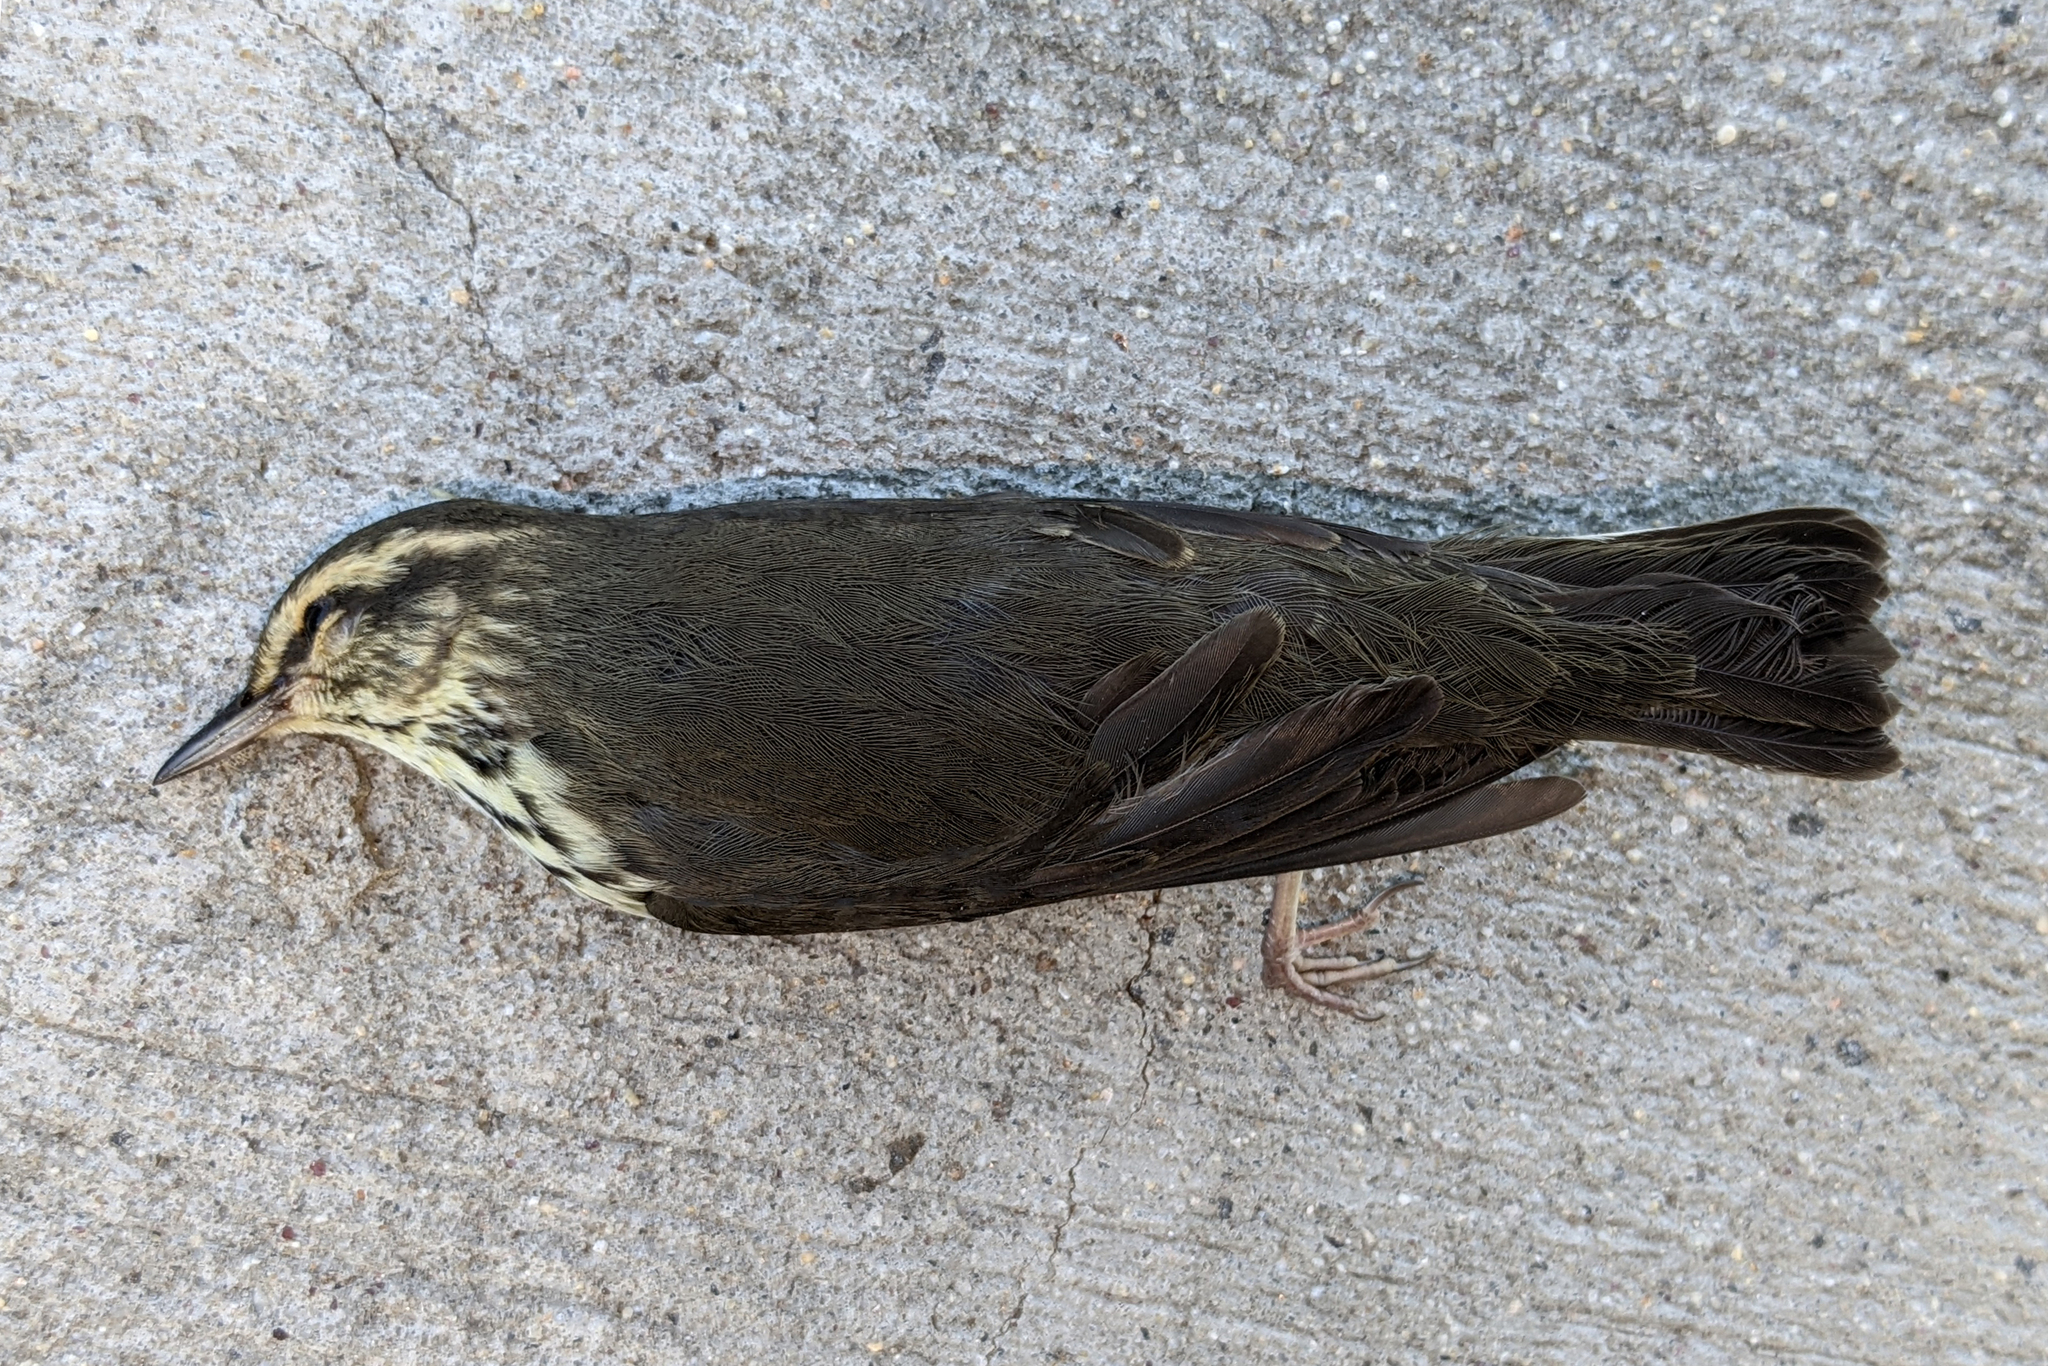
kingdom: Animalia
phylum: Chordata
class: Aves
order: Passeriformes
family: Parulidae
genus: Parkesia
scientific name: Parkesia noveboracensis
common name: Northern waterthrush
